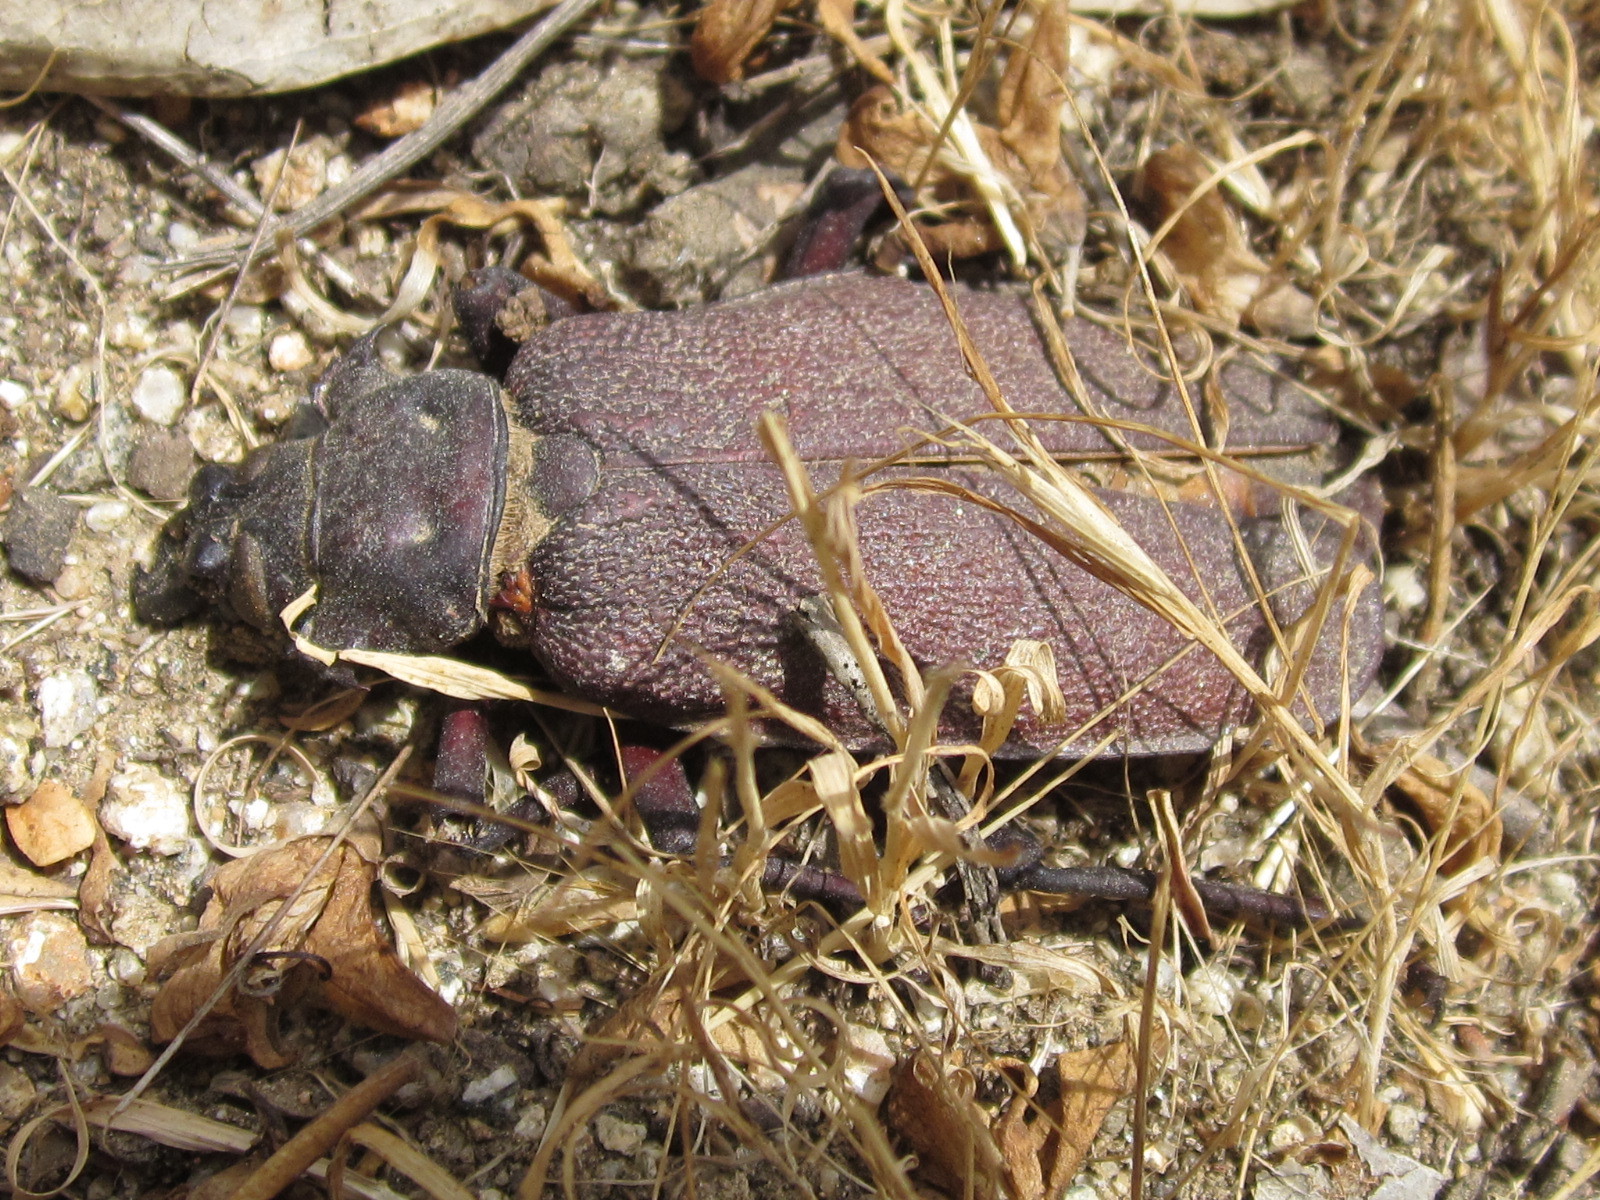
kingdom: Animalia
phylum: Arthropoda
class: Insecta
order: Coleoptera
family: Cerambycidae
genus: Acanthinodera
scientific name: Acanthinodera cumingii
